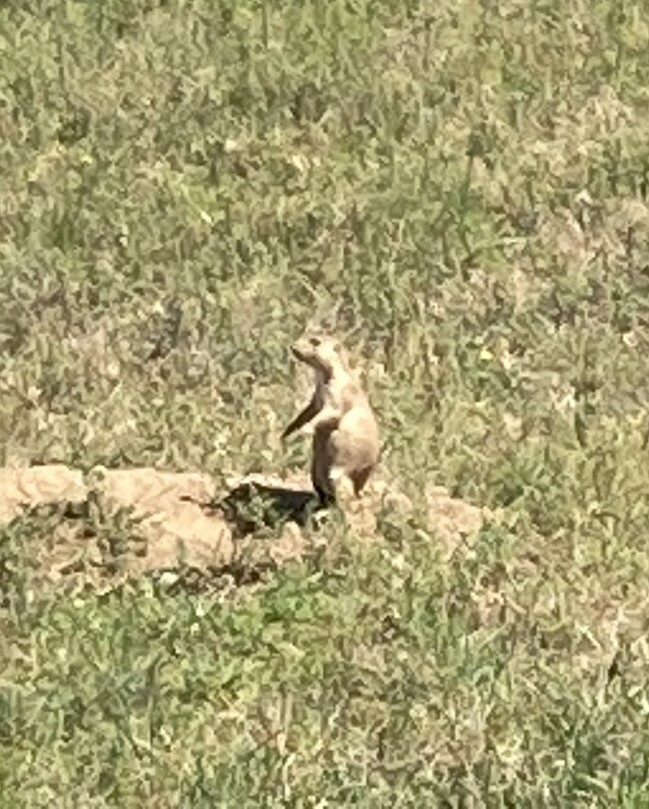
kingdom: Animalia
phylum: Chordata
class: Mammalia
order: Rodentia
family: Sciuridae
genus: Cynomys
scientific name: Cynomys ludovicianus
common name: Black-tailed prairie dog
